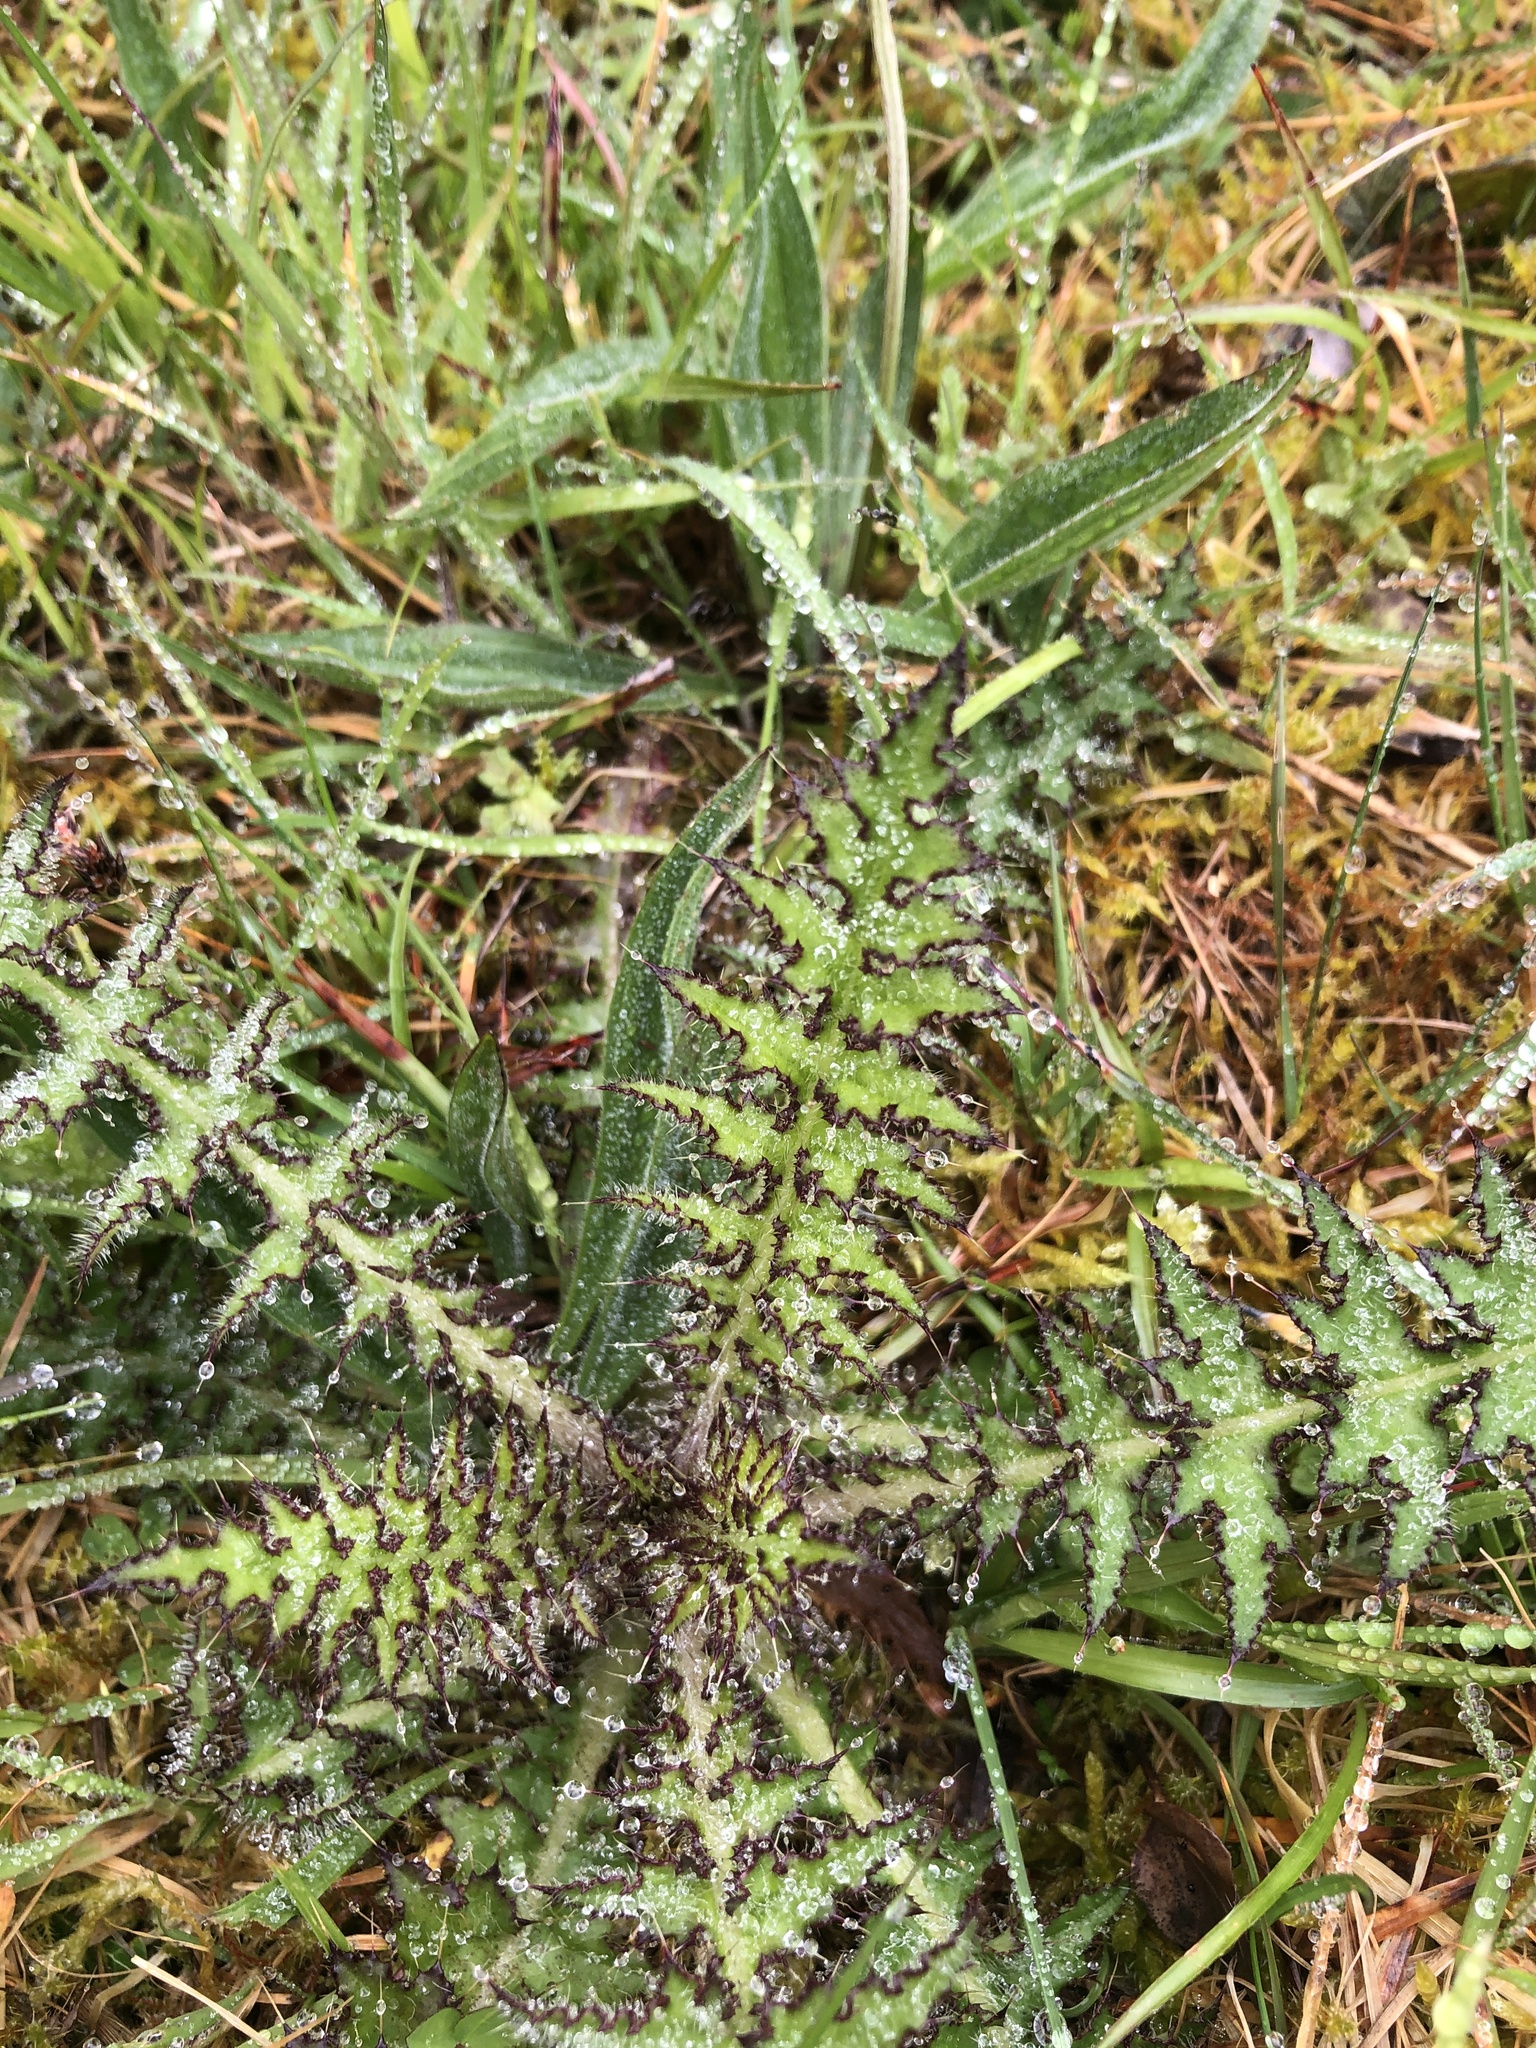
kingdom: Plantae
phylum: Tracheophyta
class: Magnoliopsida
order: Asterales
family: Asteraceae
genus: Cirsium
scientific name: Cirsium palustre
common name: Marsh thistle
